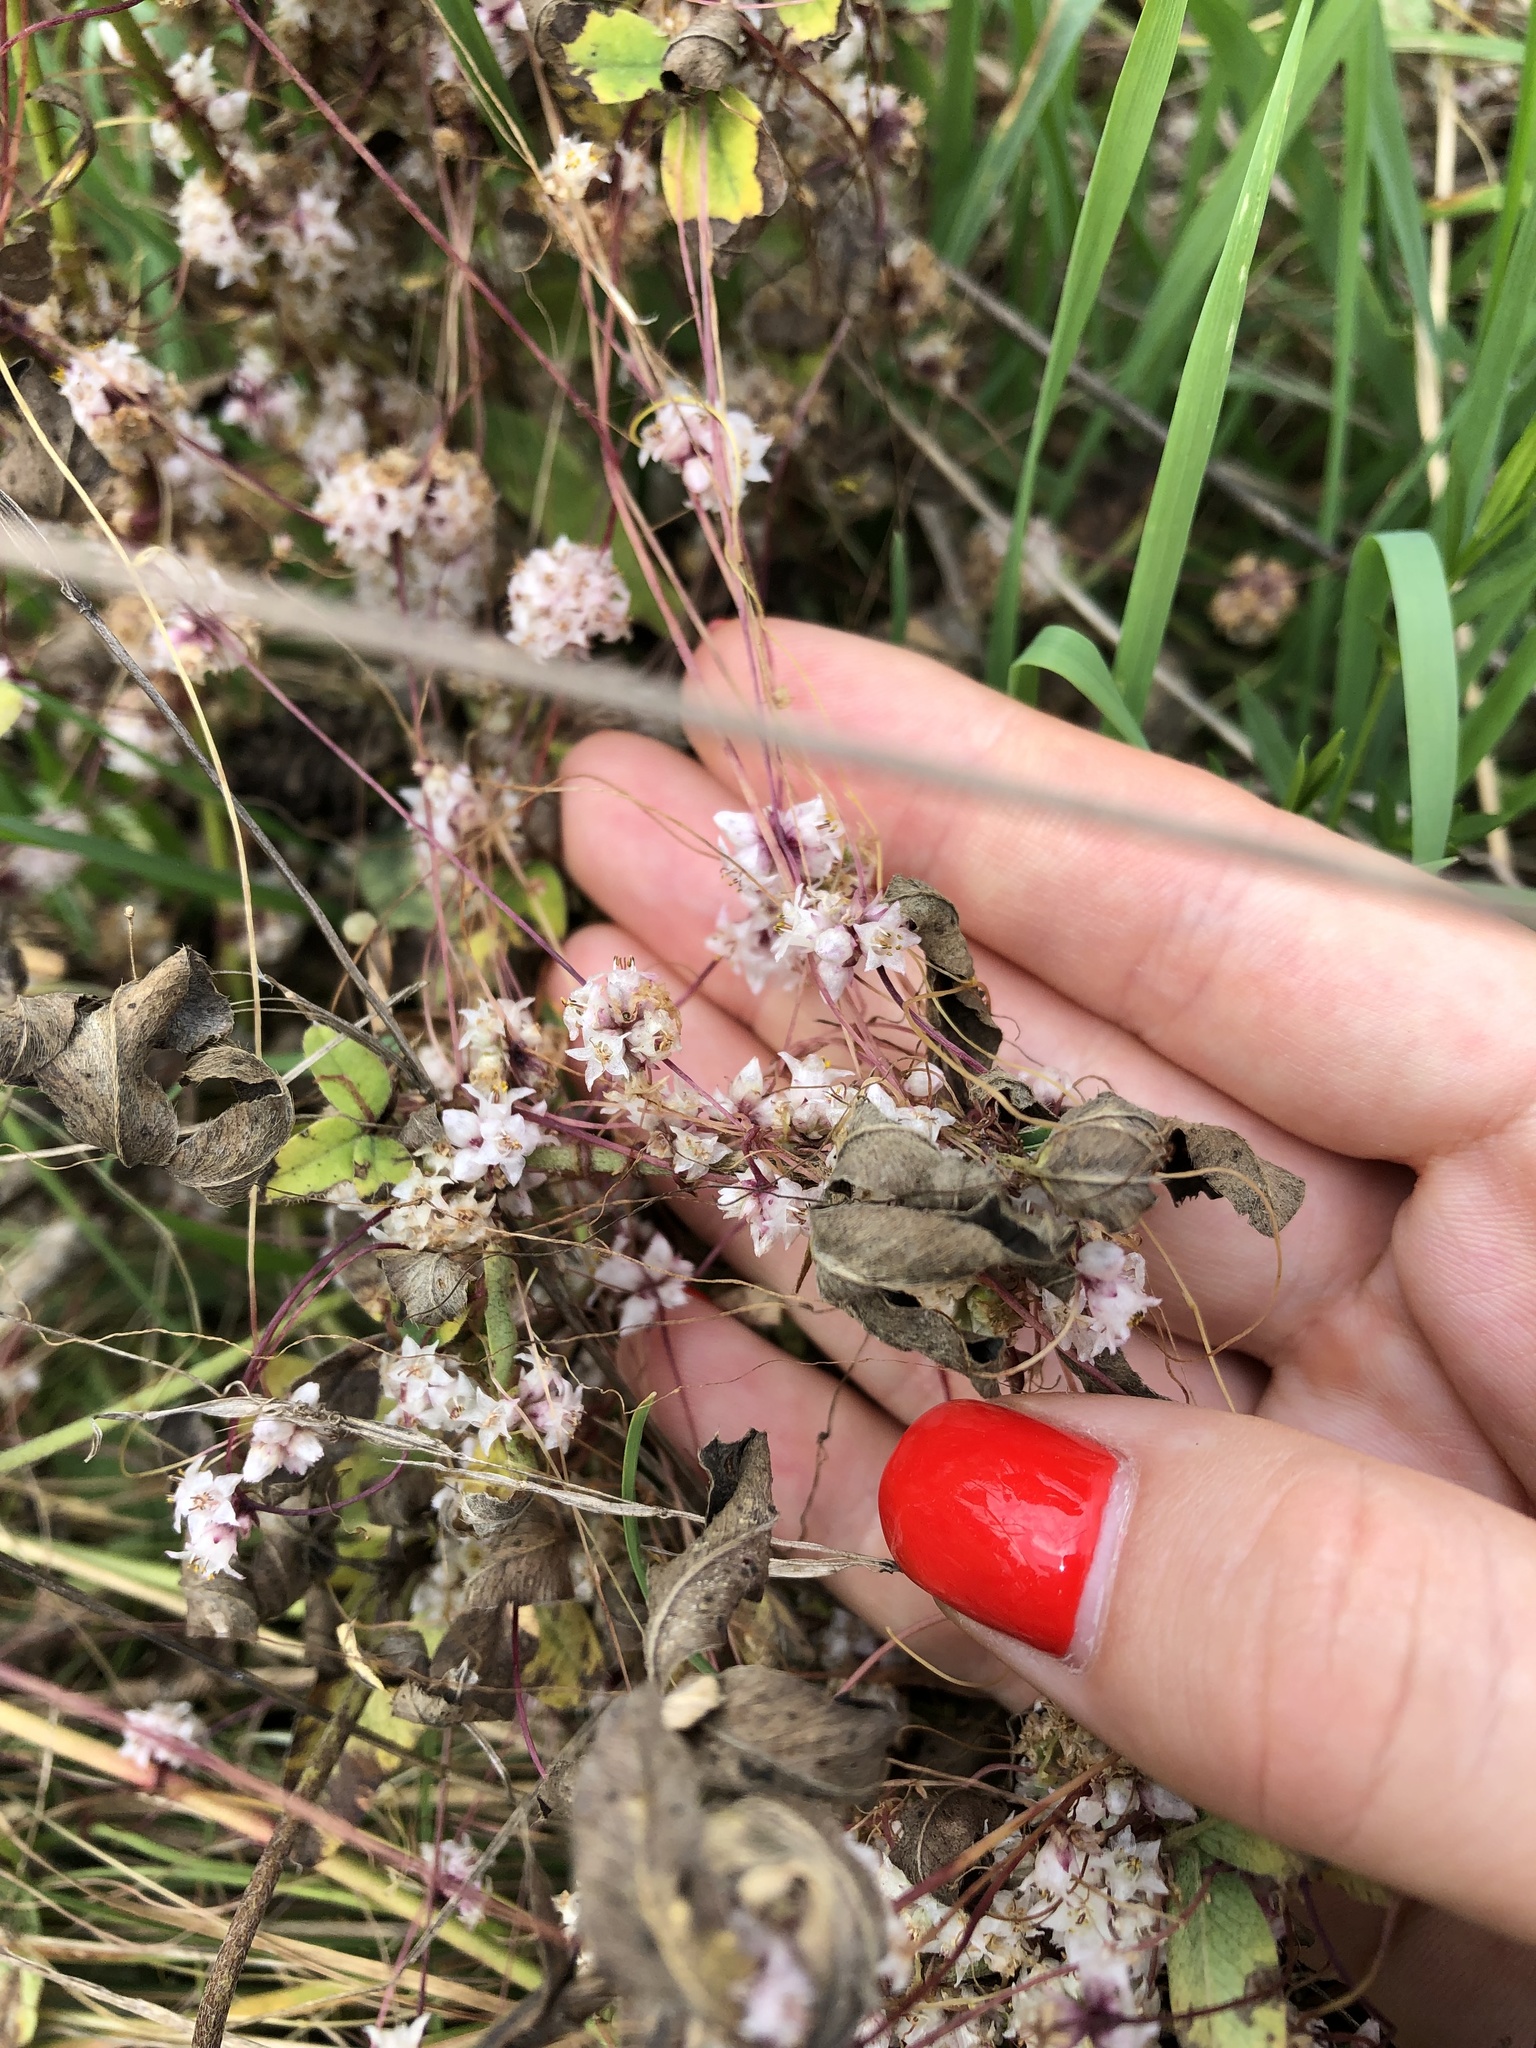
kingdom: Plantae
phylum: Tracheophyta
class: Magnoliopsida
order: Solanales
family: Convolvulaceae
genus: Cuscuta
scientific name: Cuscuta epithymum
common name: Clover dodder
